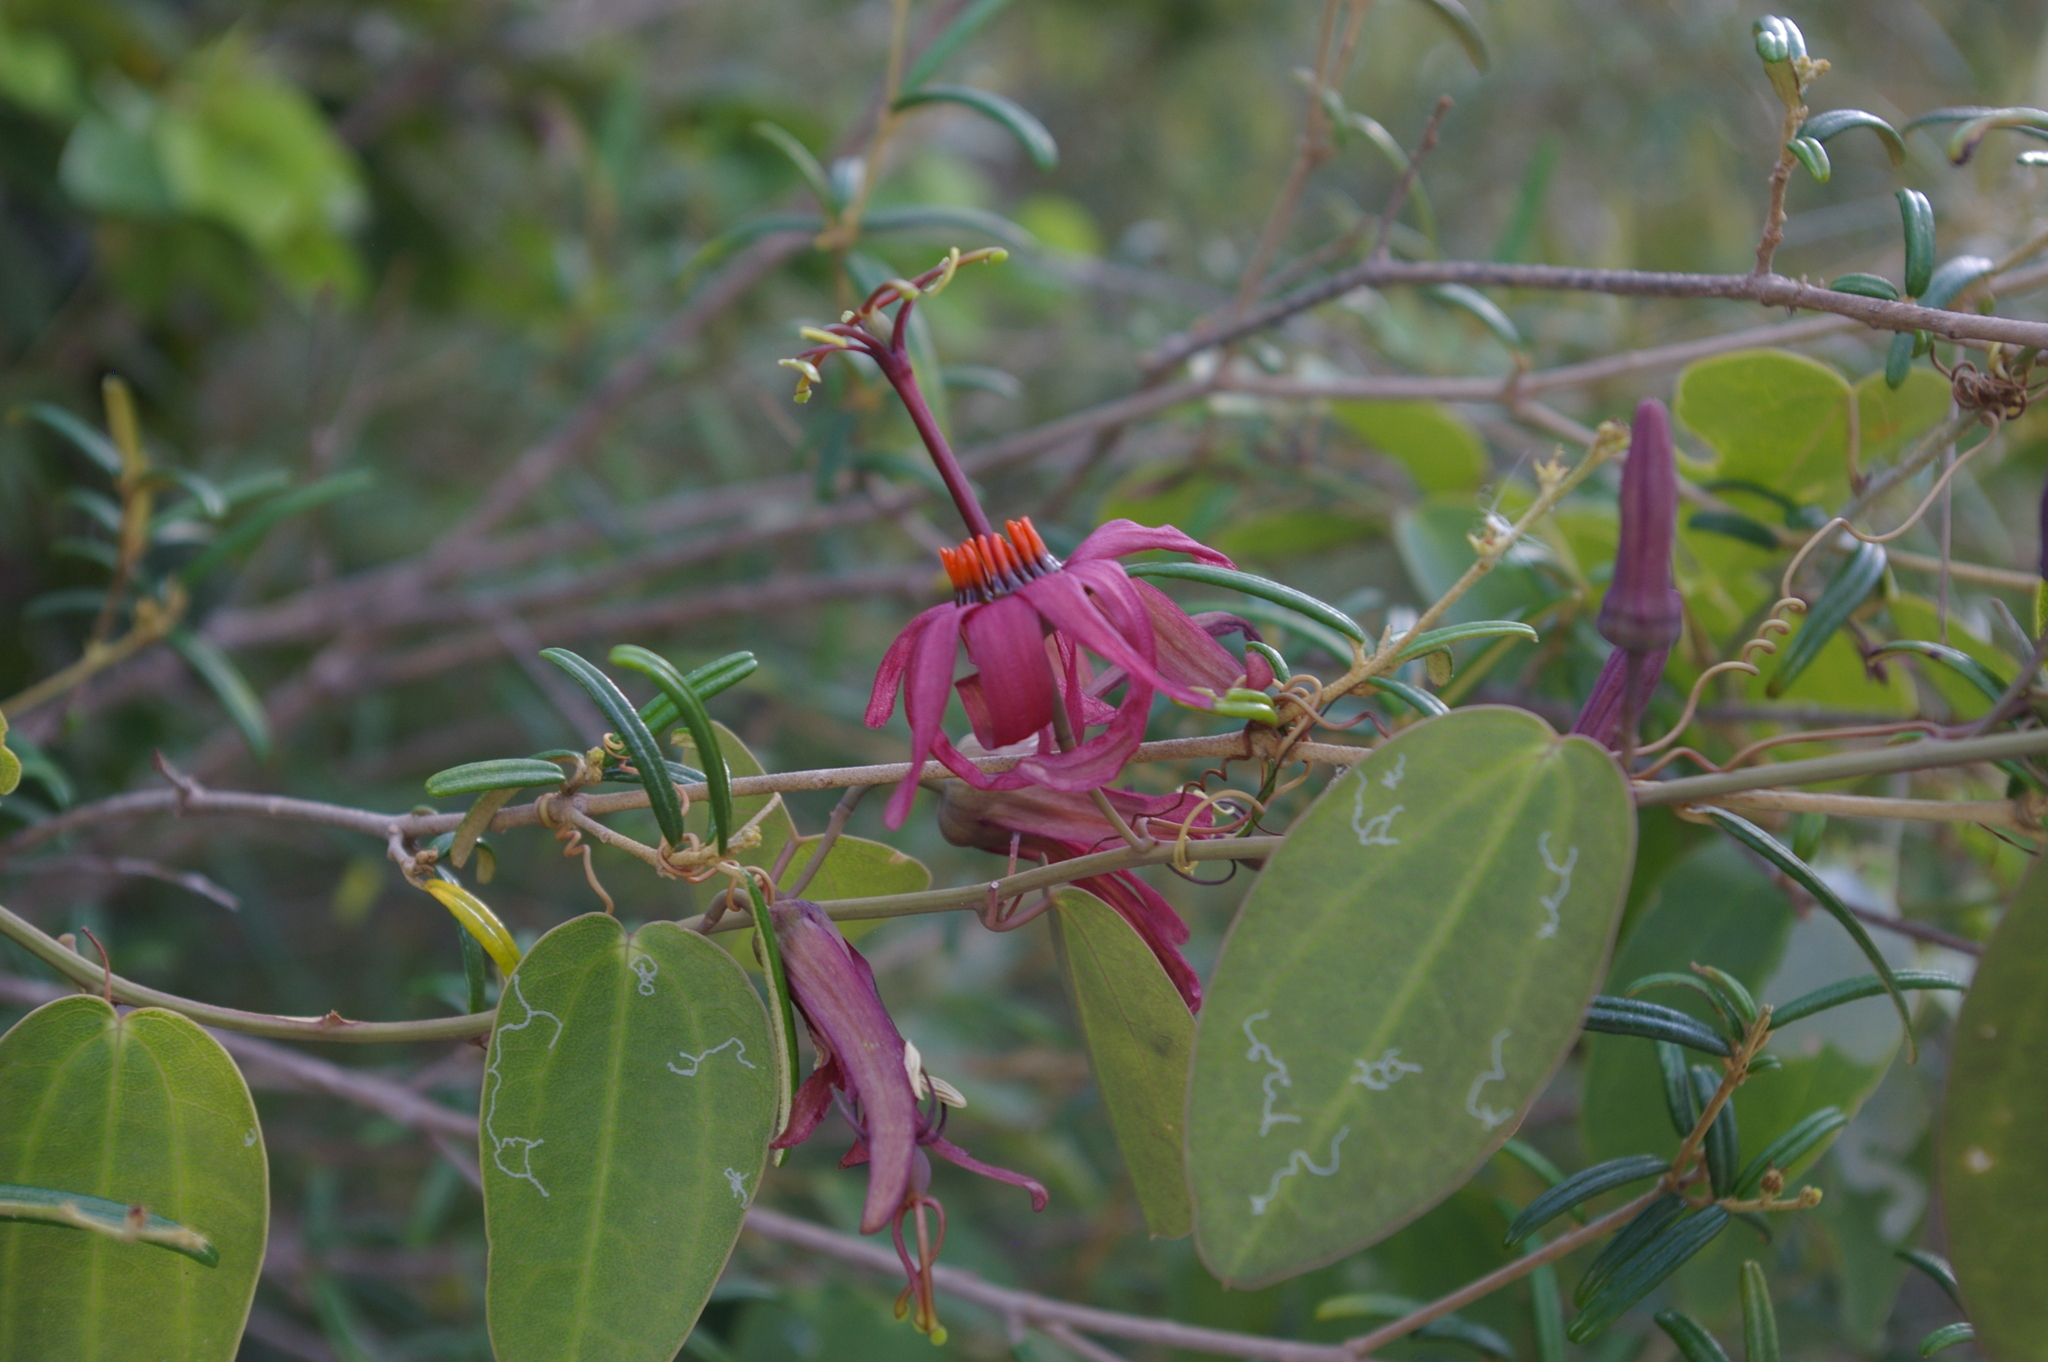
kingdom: Plantae
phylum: Tracheophyta
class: Magnoliopsida
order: Malpighiales
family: Passifloraceae
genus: Passiflora
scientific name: Passiflora cupraea
